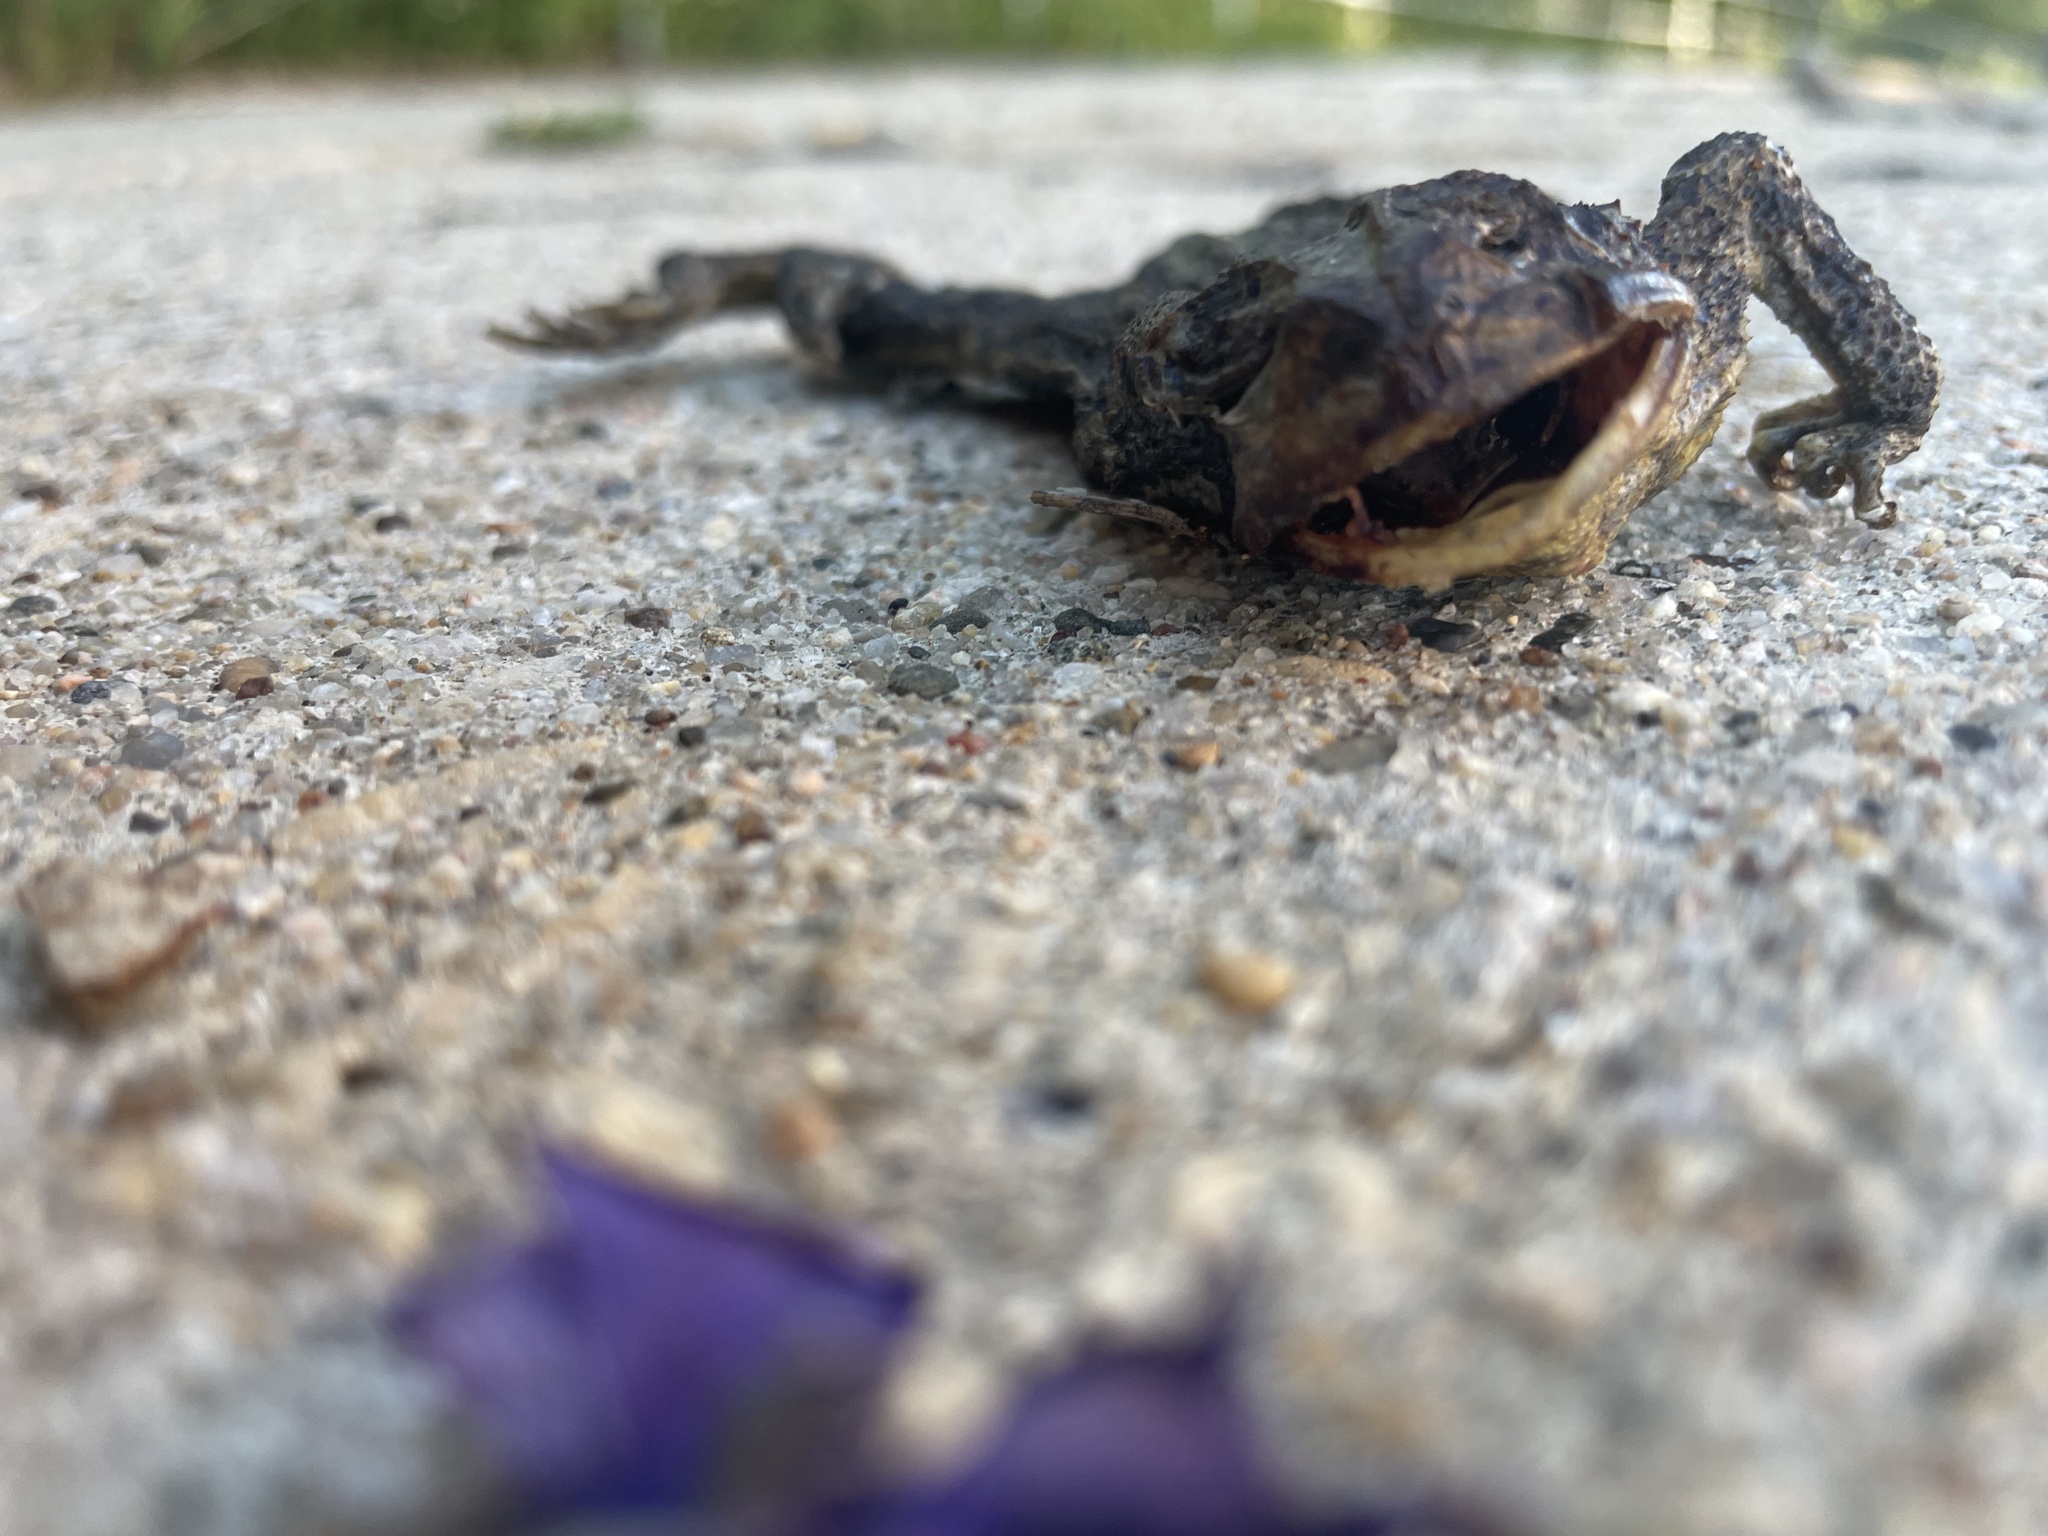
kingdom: Animalia
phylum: Chordata
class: Amphibia
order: Anura
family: Bufonidae
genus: Anaxyrus
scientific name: Anaxyrus americanus
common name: American toad
